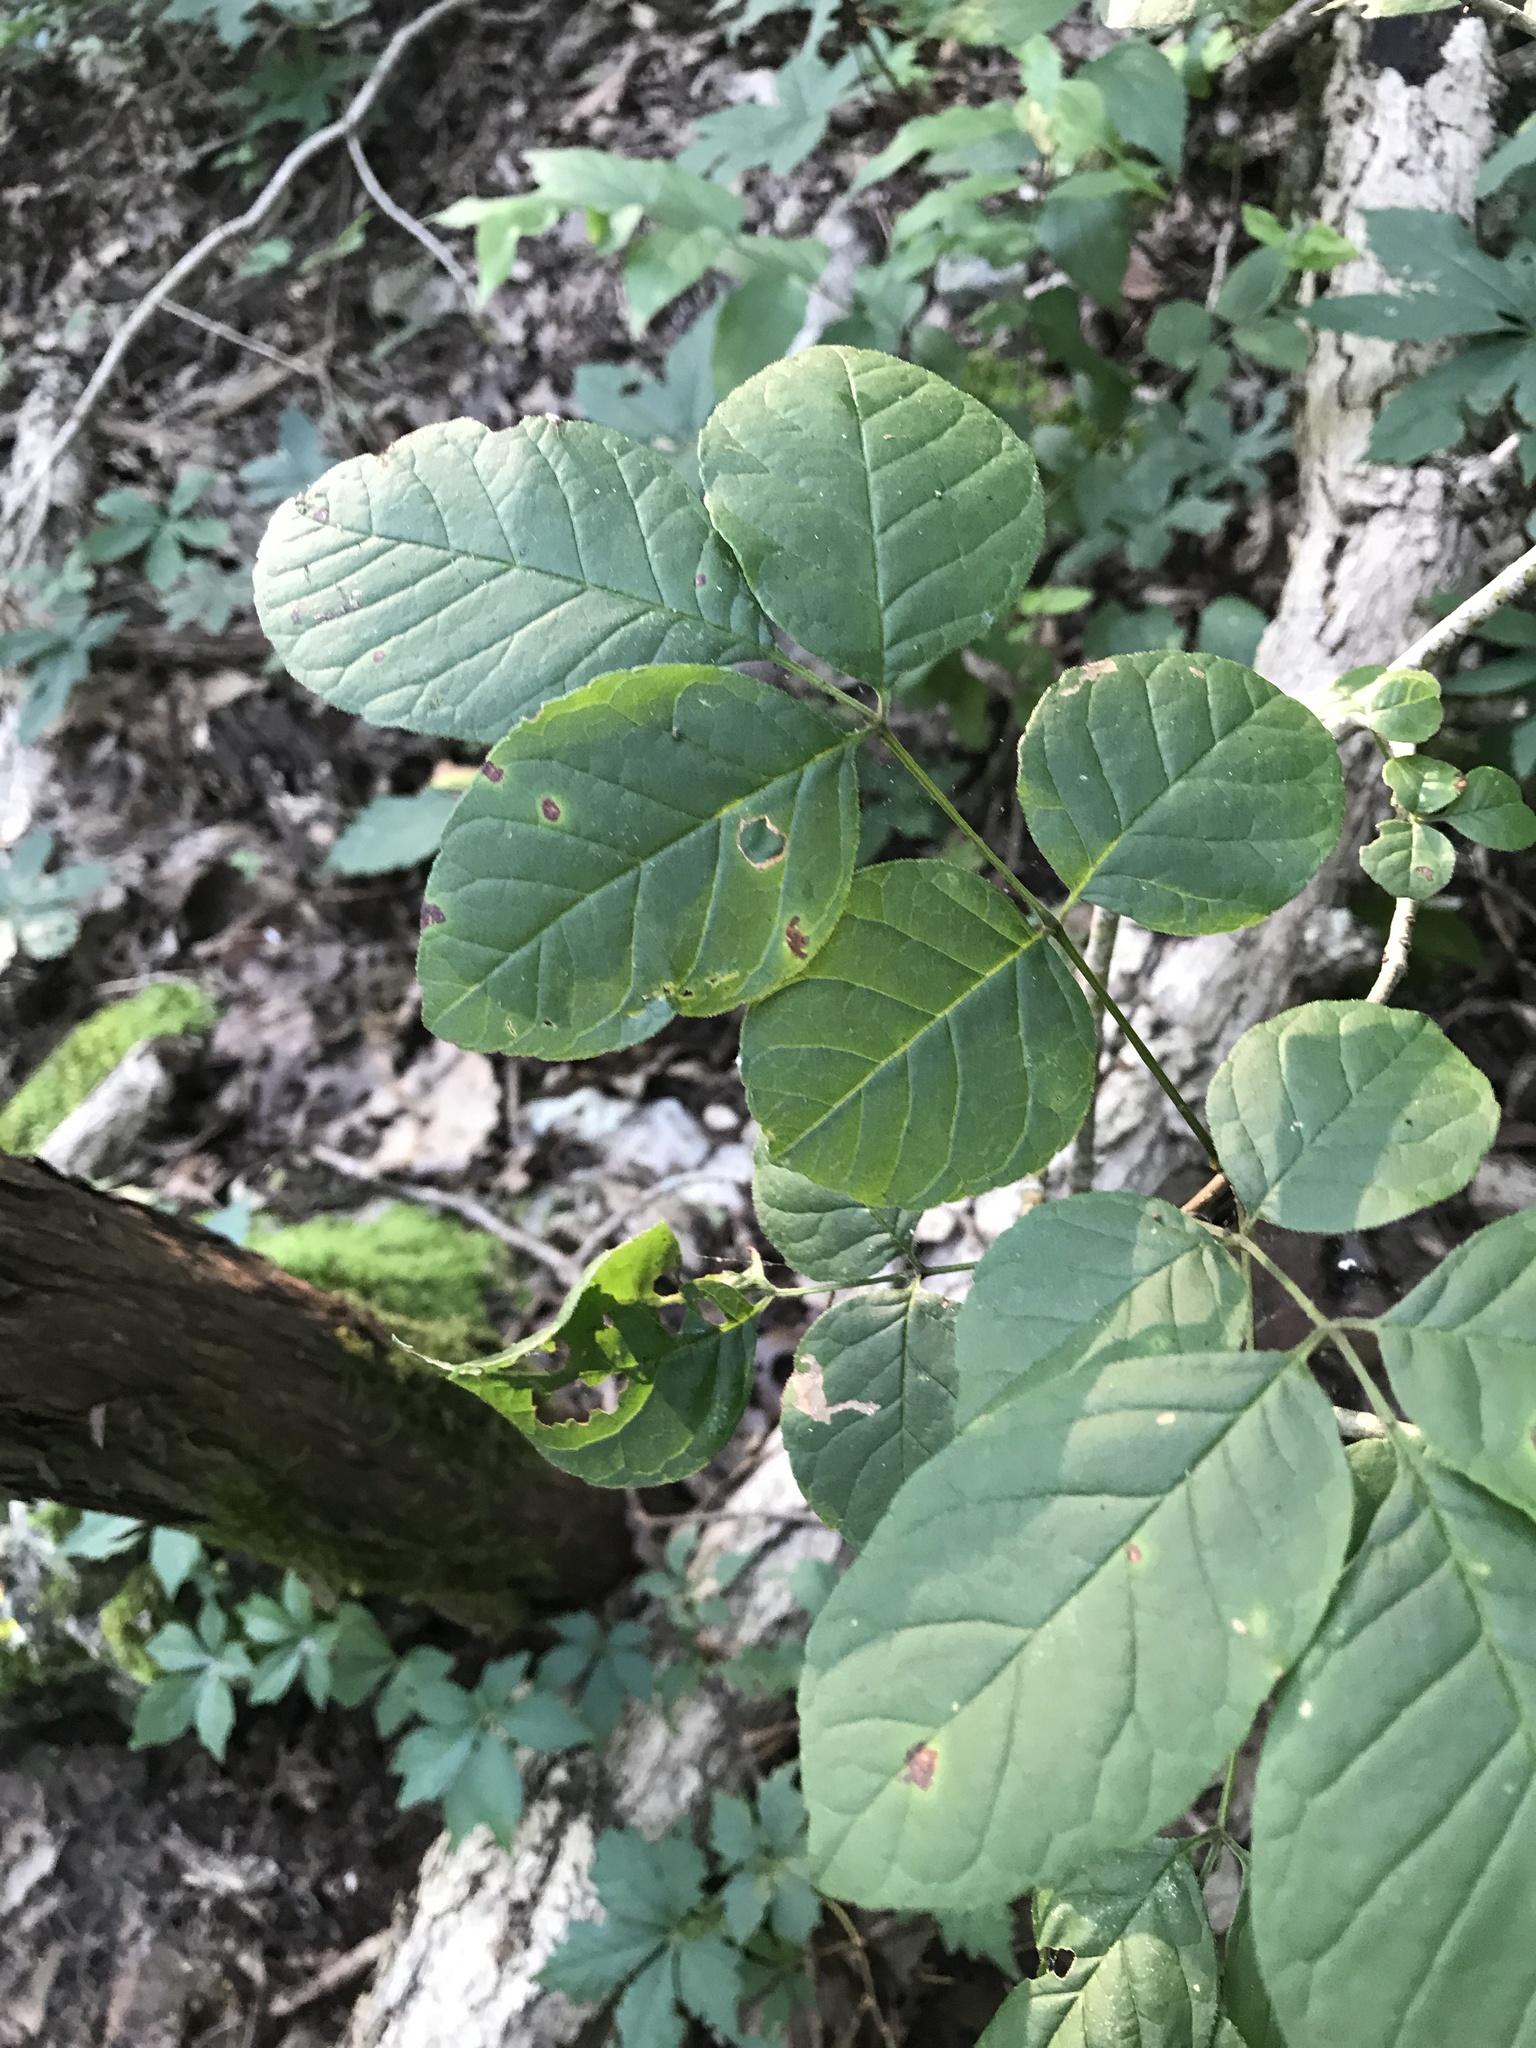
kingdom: Plantae
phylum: Tracheophyta
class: Magnoliopsida
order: Lamiales
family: Oleaceae
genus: Fraxinus
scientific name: Fraxinus albicans
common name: Texas ash
